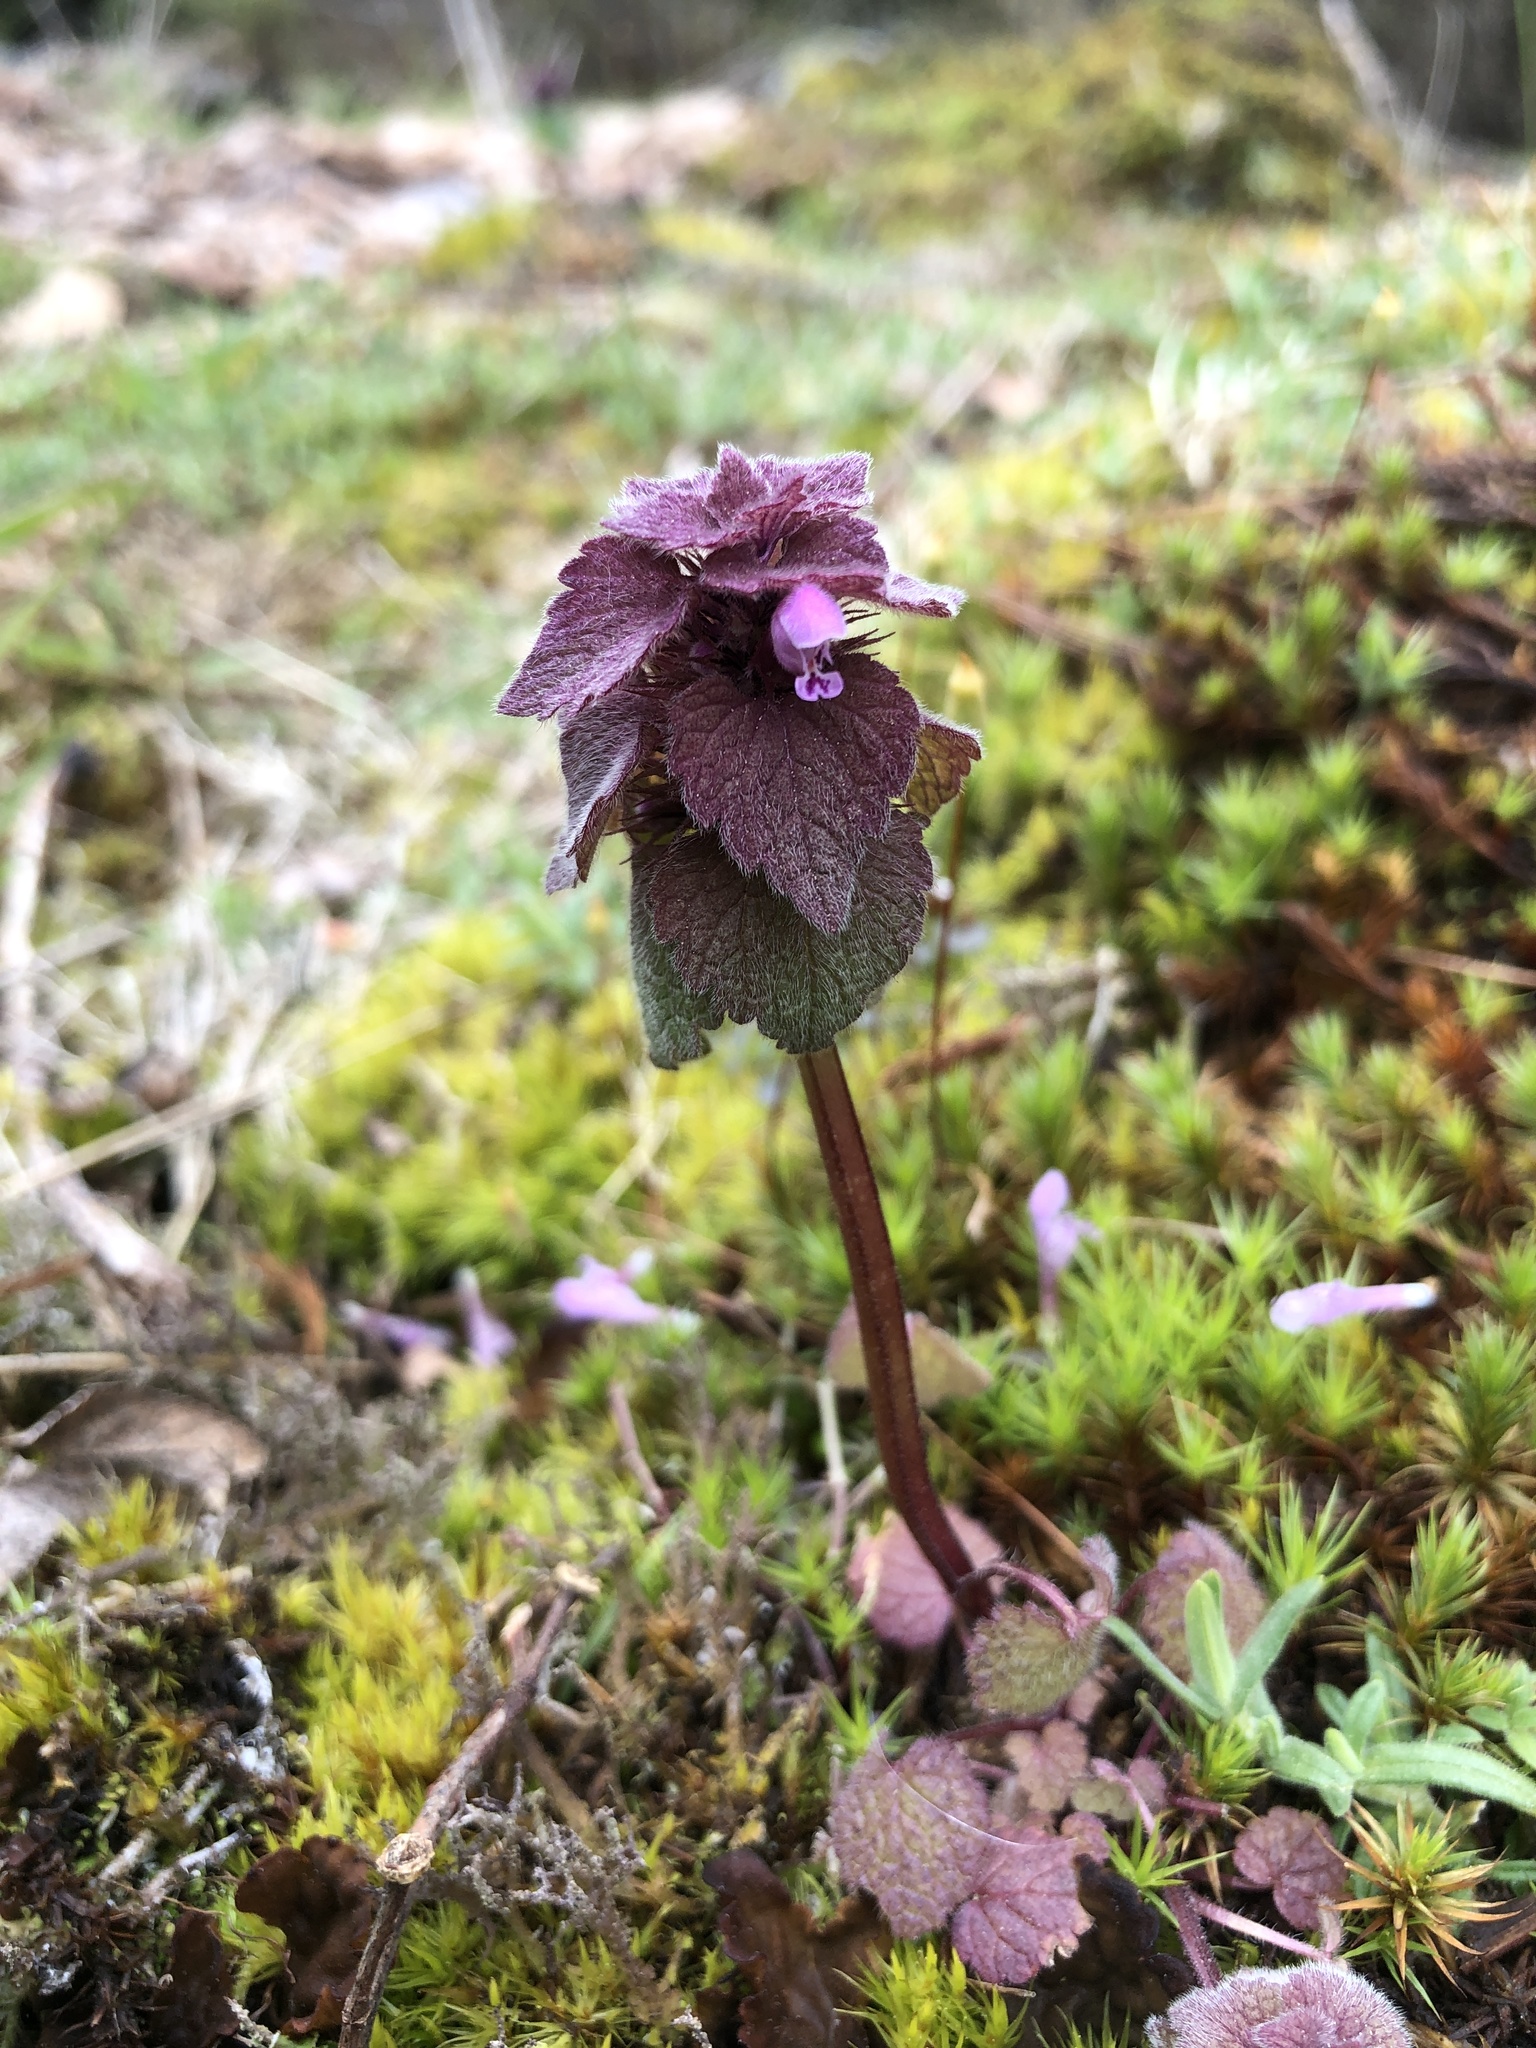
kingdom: Plantae
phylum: Tracheophyta
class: Magnoliopsida
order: Lamiales
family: Lamiaceae
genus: Lamium
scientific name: Lamium purpureum
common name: Red dead-nettle
